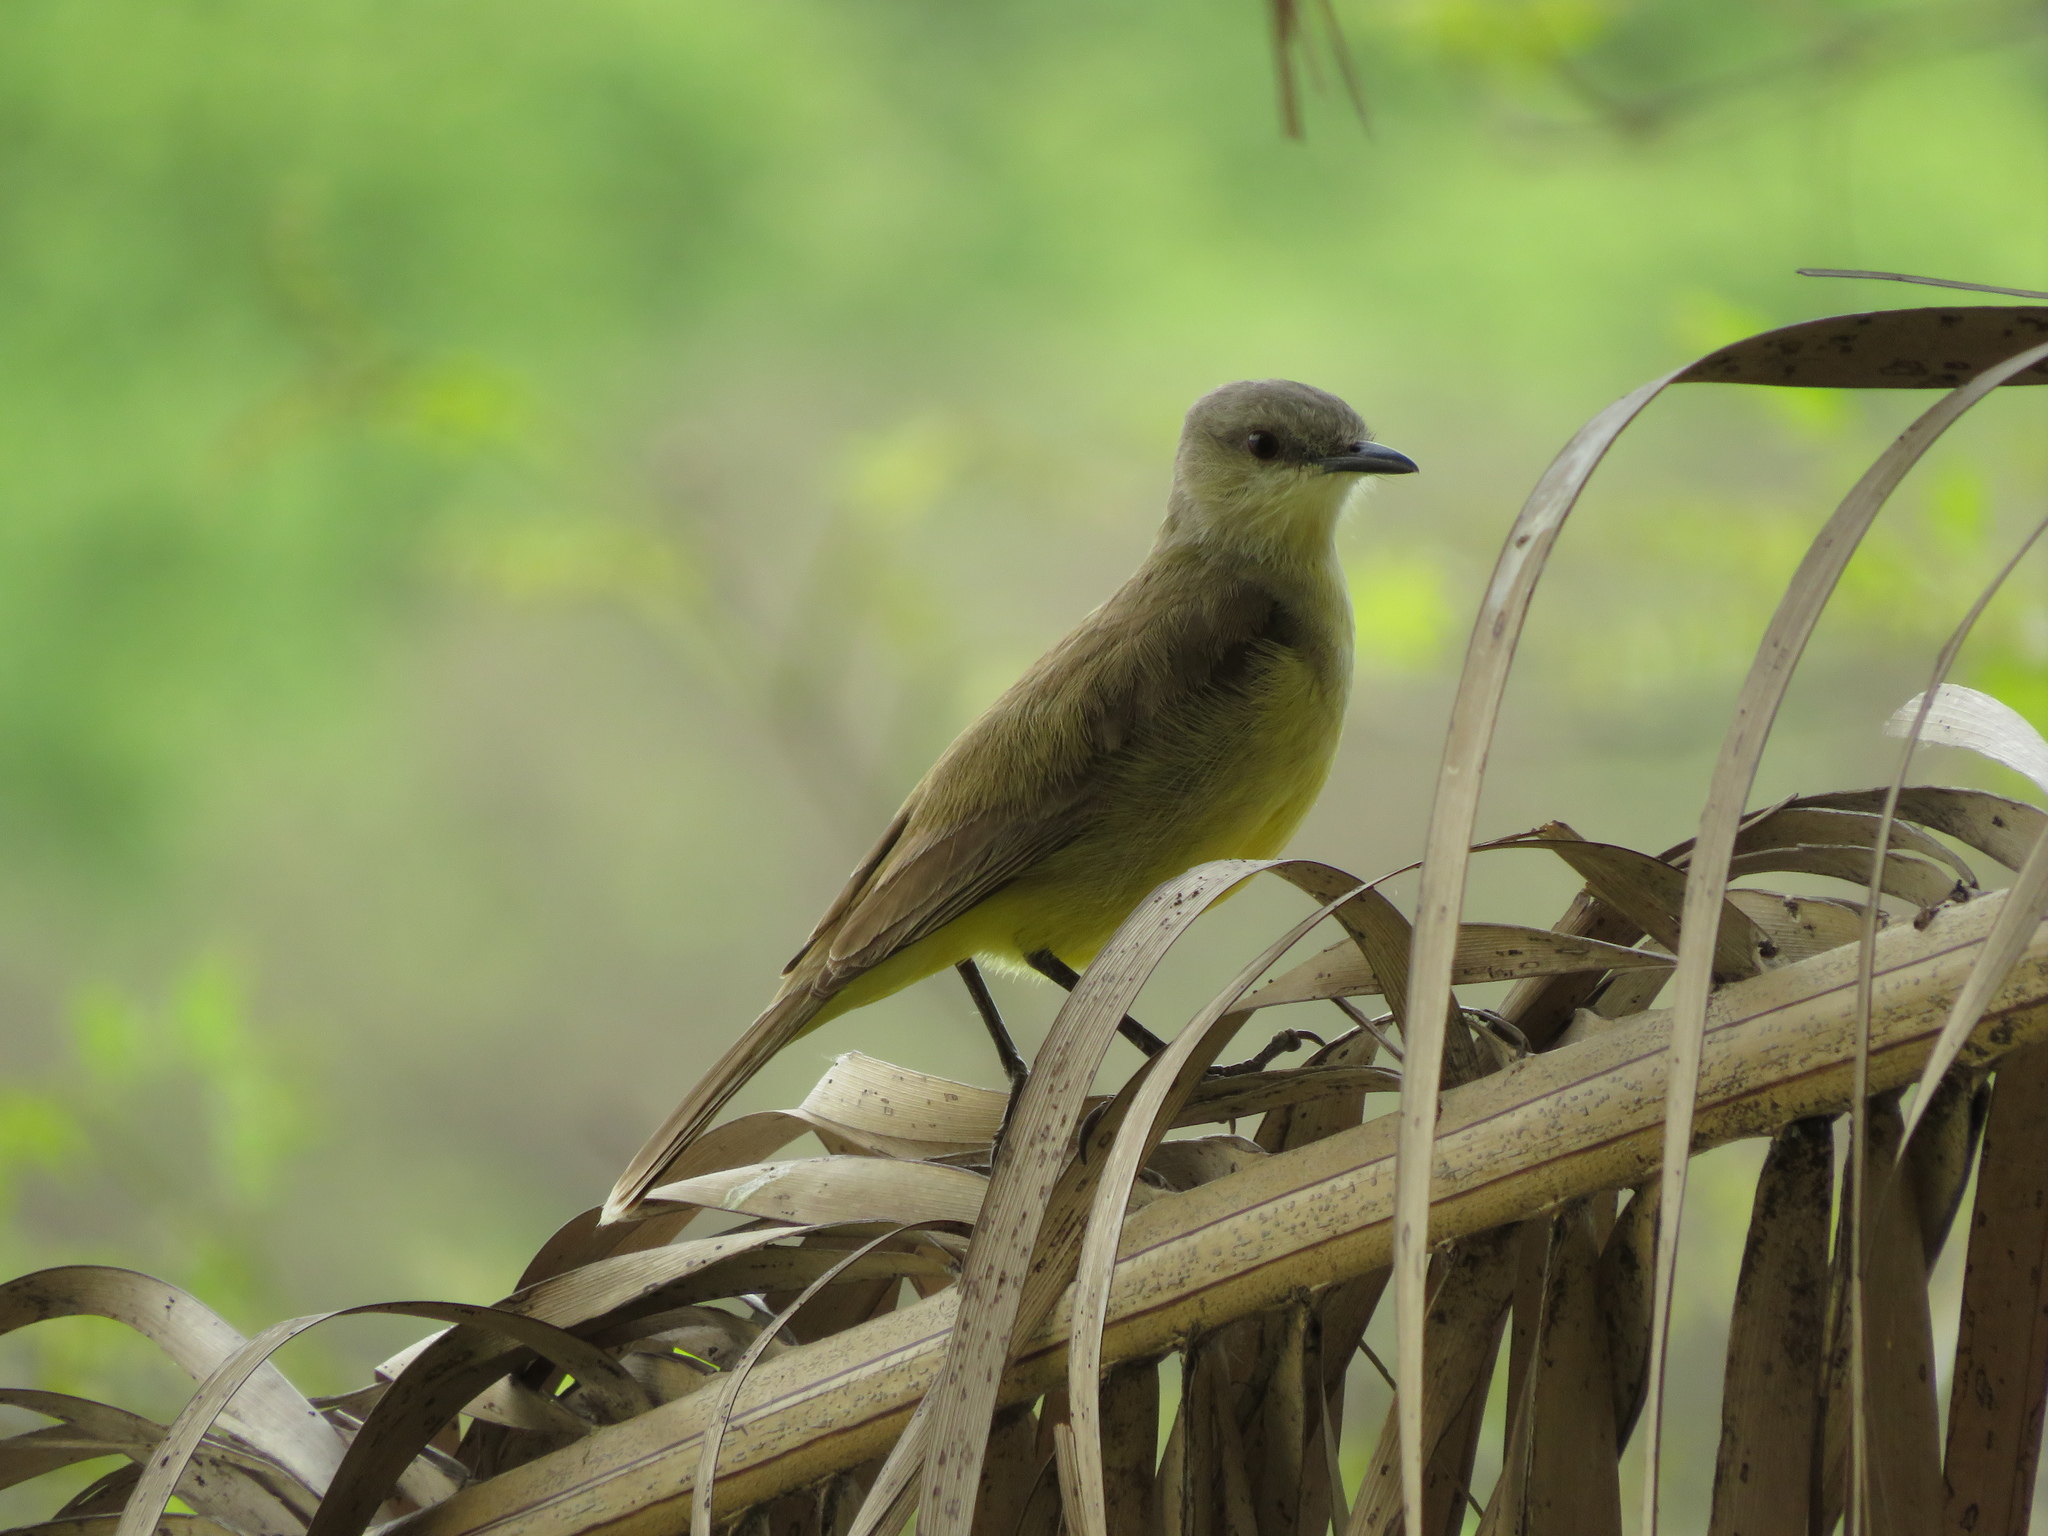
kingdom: Animalia
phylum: Chordata
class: Aves
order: Passeriformes
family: Tyrannidae
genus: Machetornis
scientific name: Machetornis rixosa
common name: Cattle tyrant
